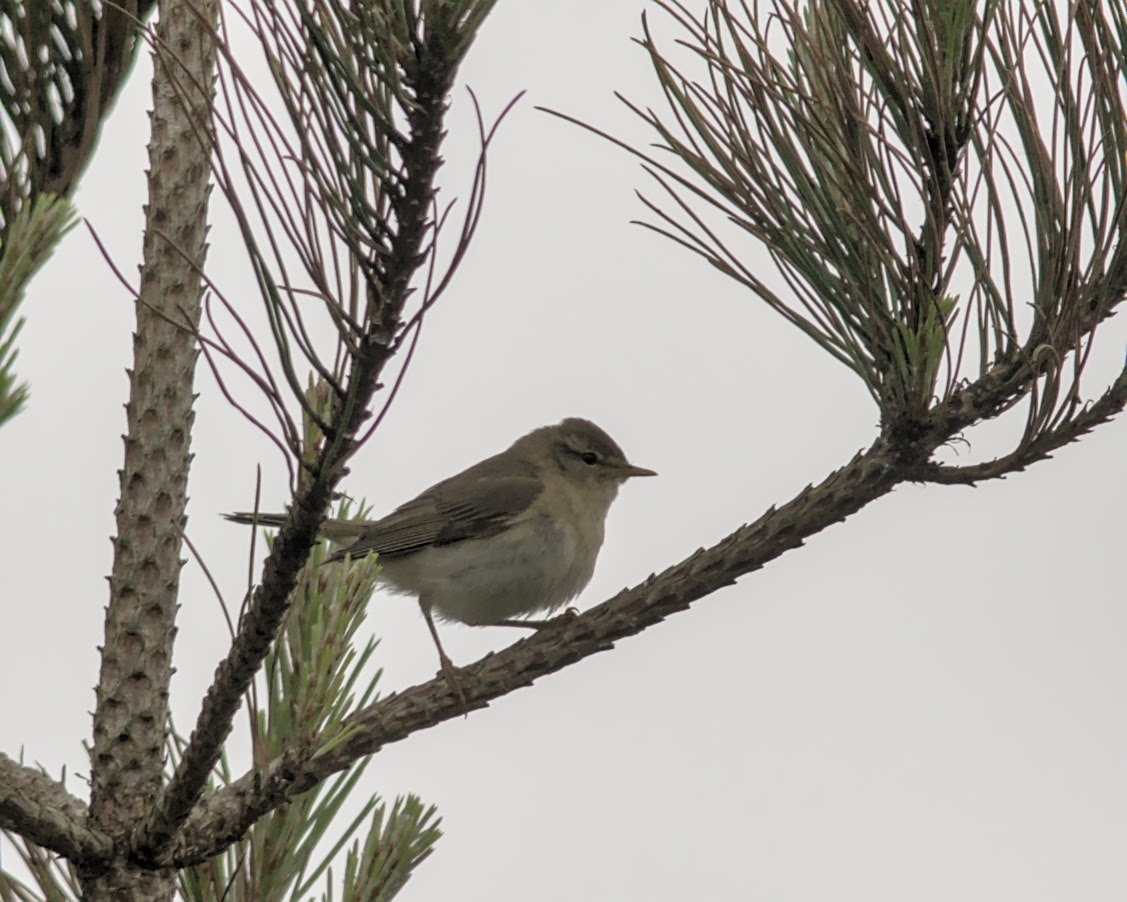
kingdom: Animalia
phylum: Chordata
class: Aves
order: Passeriformes
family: Phylloscopidae
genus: Phylloscopus
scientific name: Phylloscopus trochilus
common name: Willow warbler
